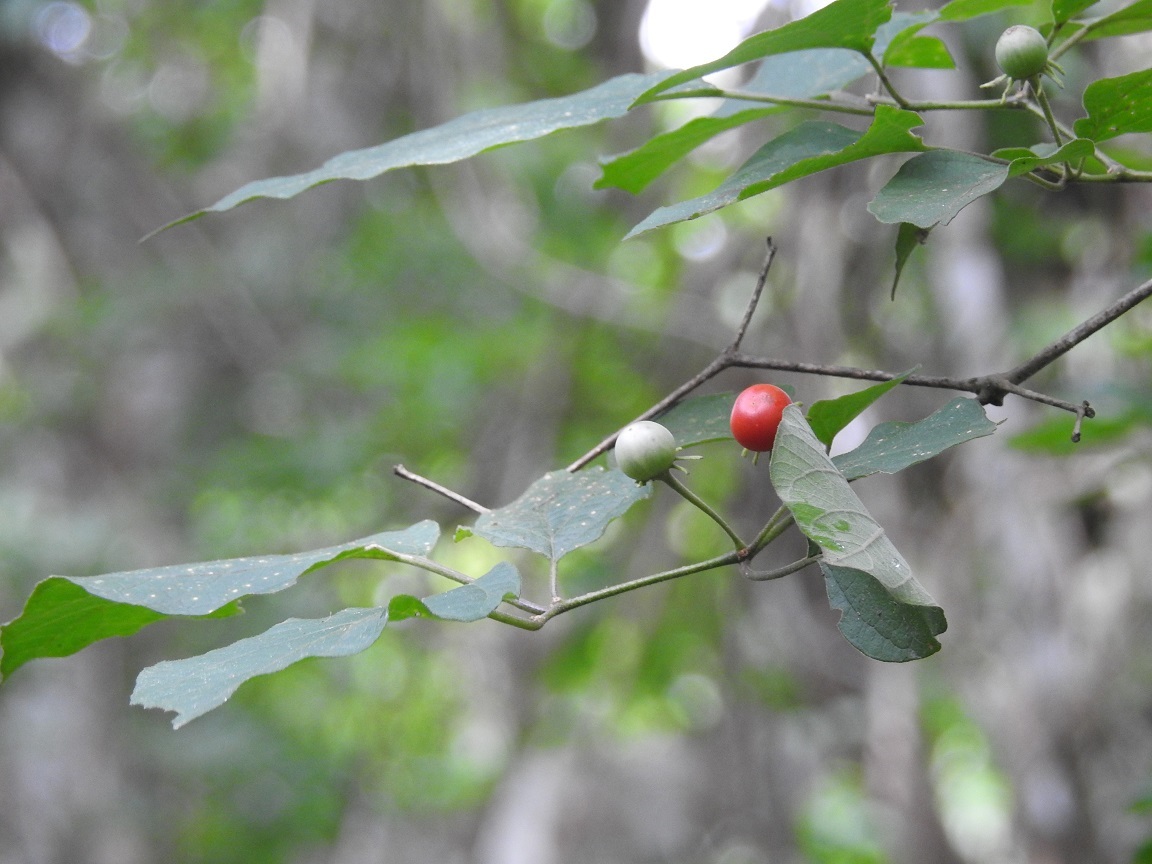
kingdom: Plantae
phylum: Tracheophyta
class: Magnoliopsida
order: Solanales
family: Solanaceae
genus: Lycianthes
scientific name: Lycianthes scandens
